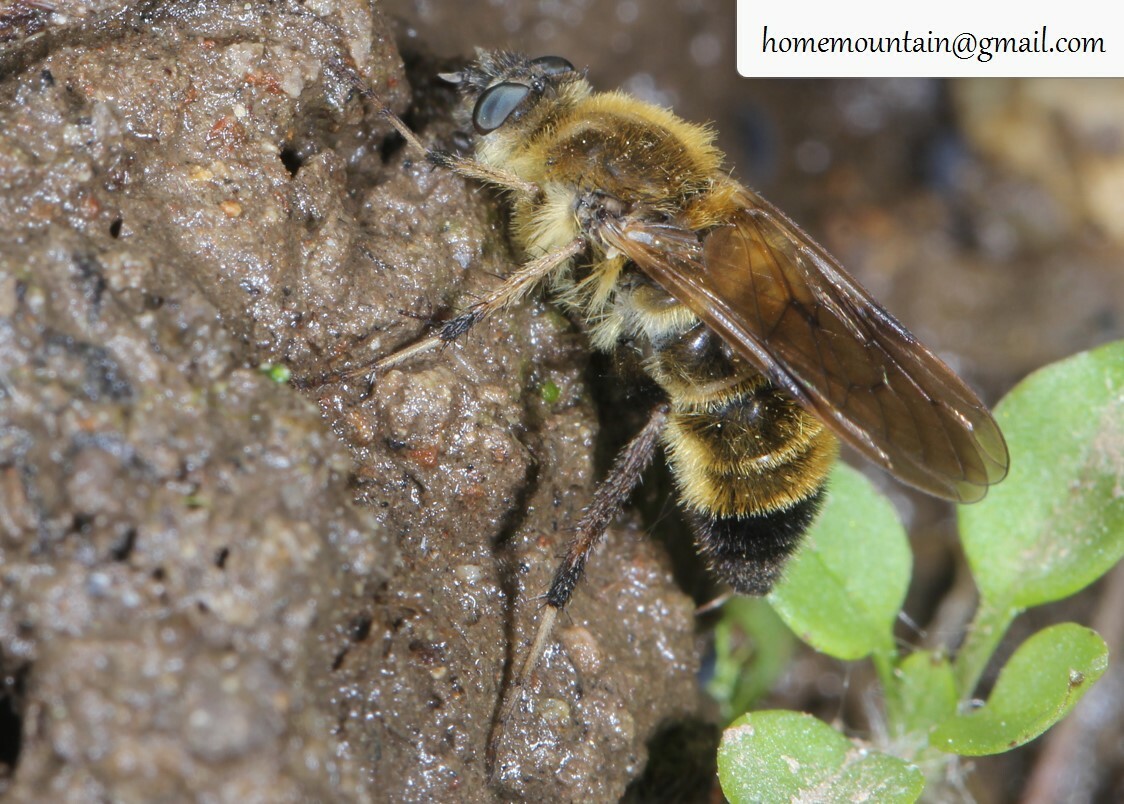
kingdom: Animalia
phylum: Arthropoda
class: Insecta
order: Diptera
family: Therevidae
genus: Sinothereva
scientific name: Sinothereva shangui
